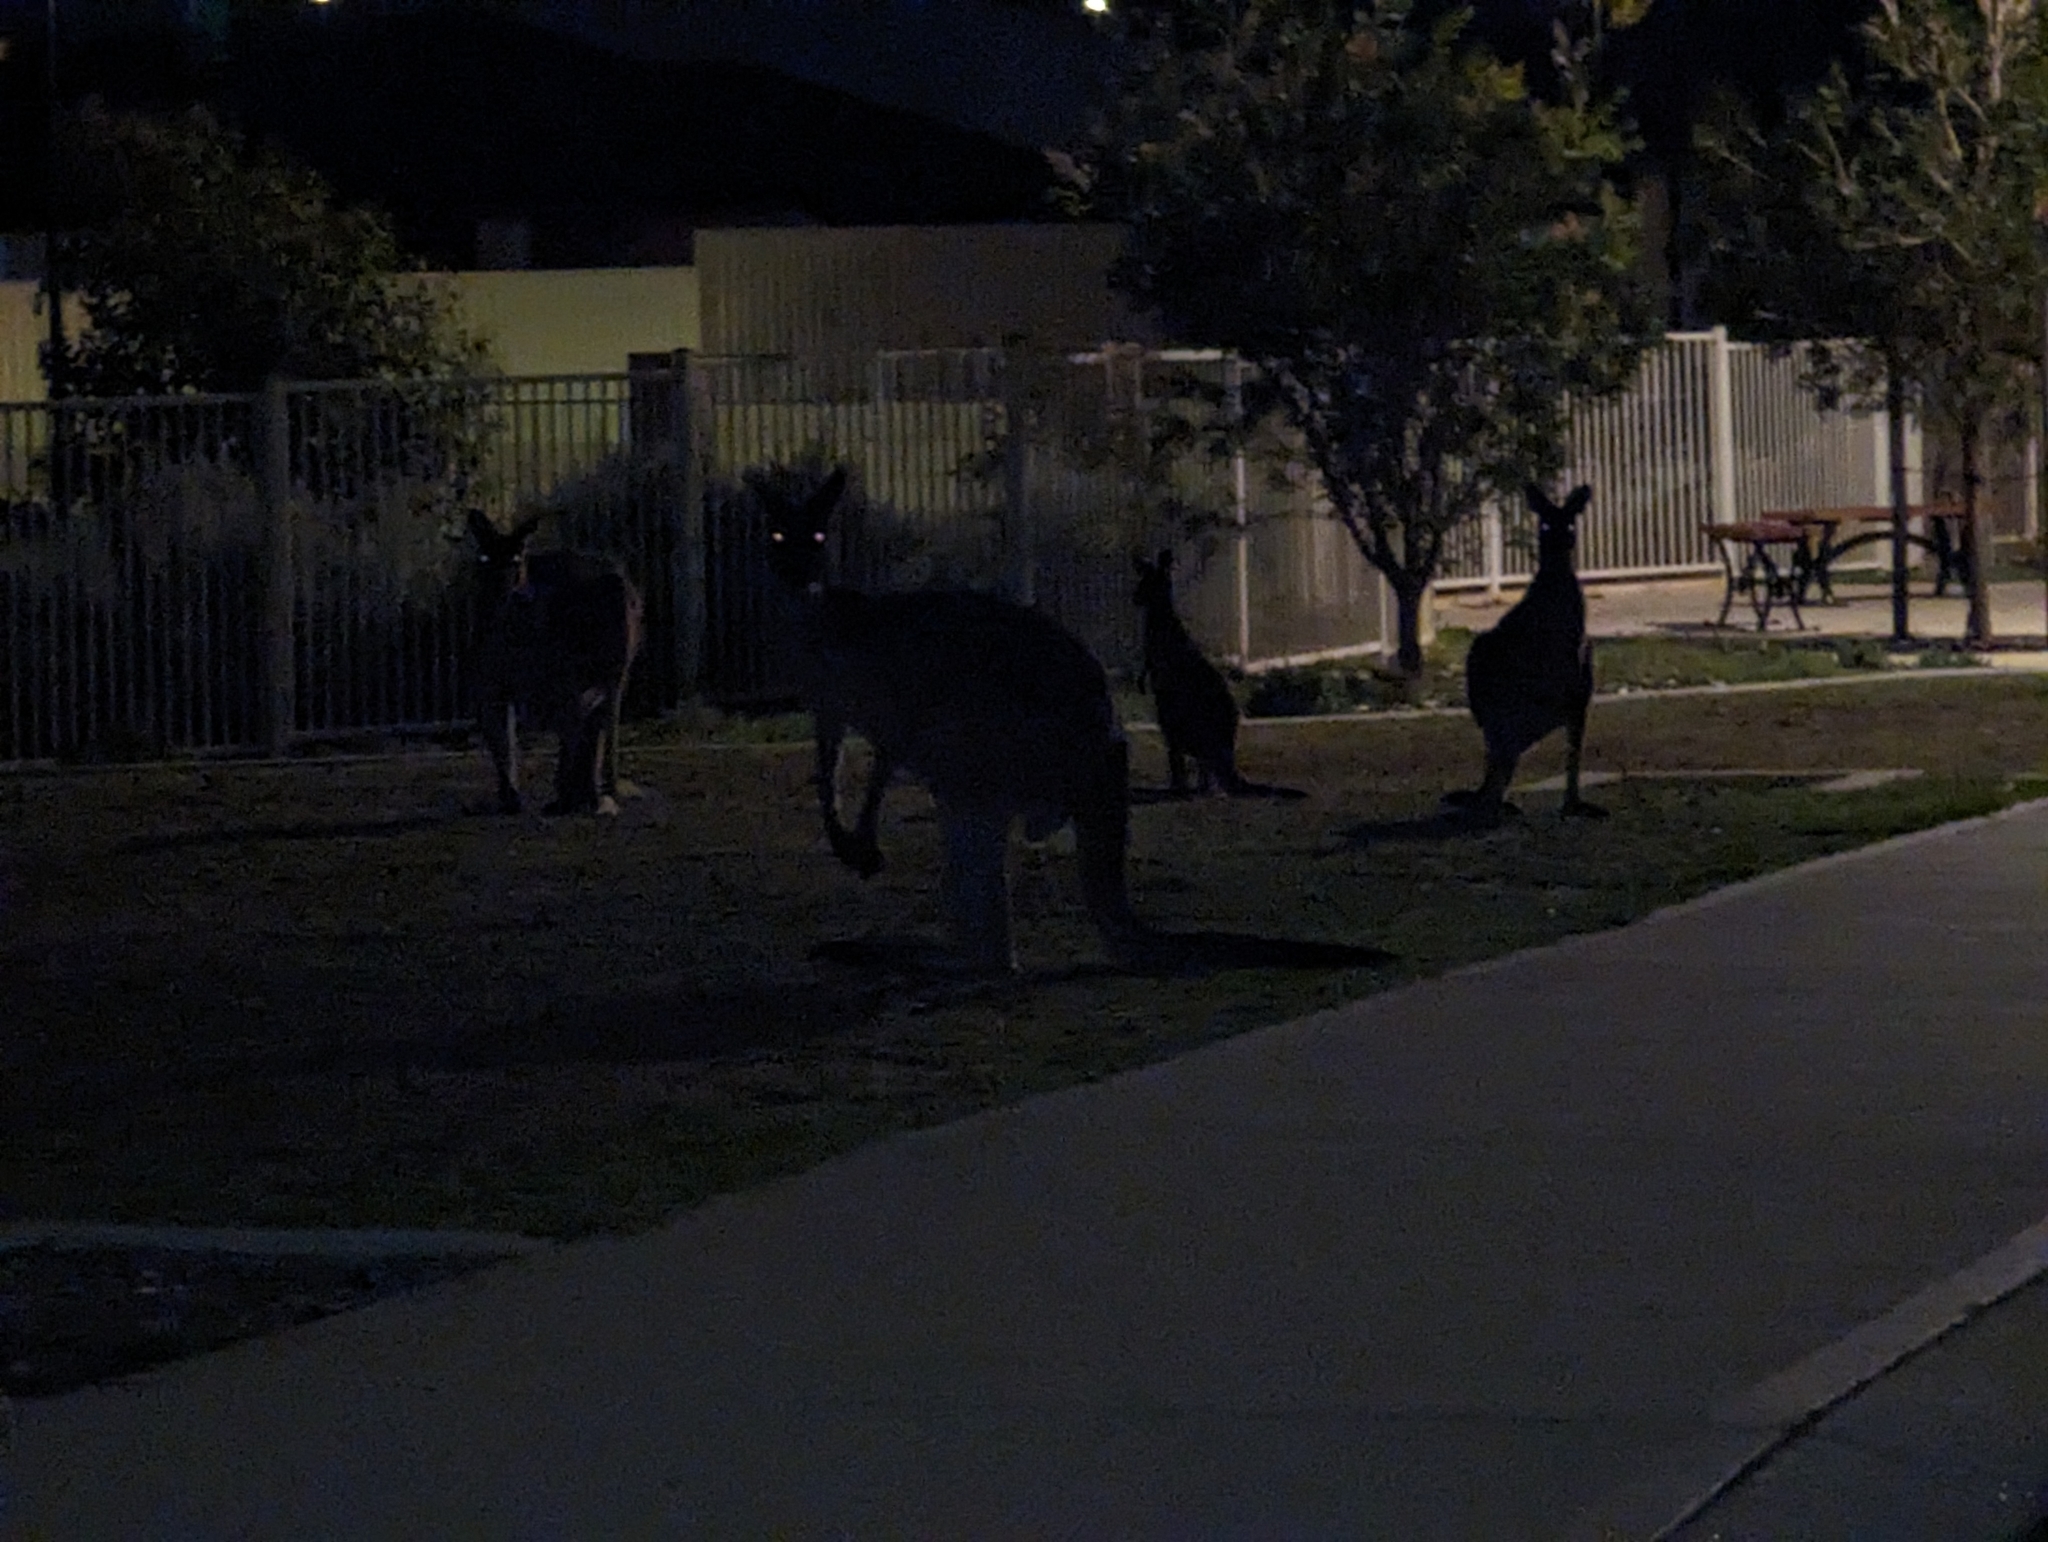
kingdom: Animalia
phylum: Chordata
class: Mammalia
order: Diprotodontia
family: Macropodidae
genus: Macropus
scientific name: Macropus fuliginosus
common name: Western grey kangaroo
